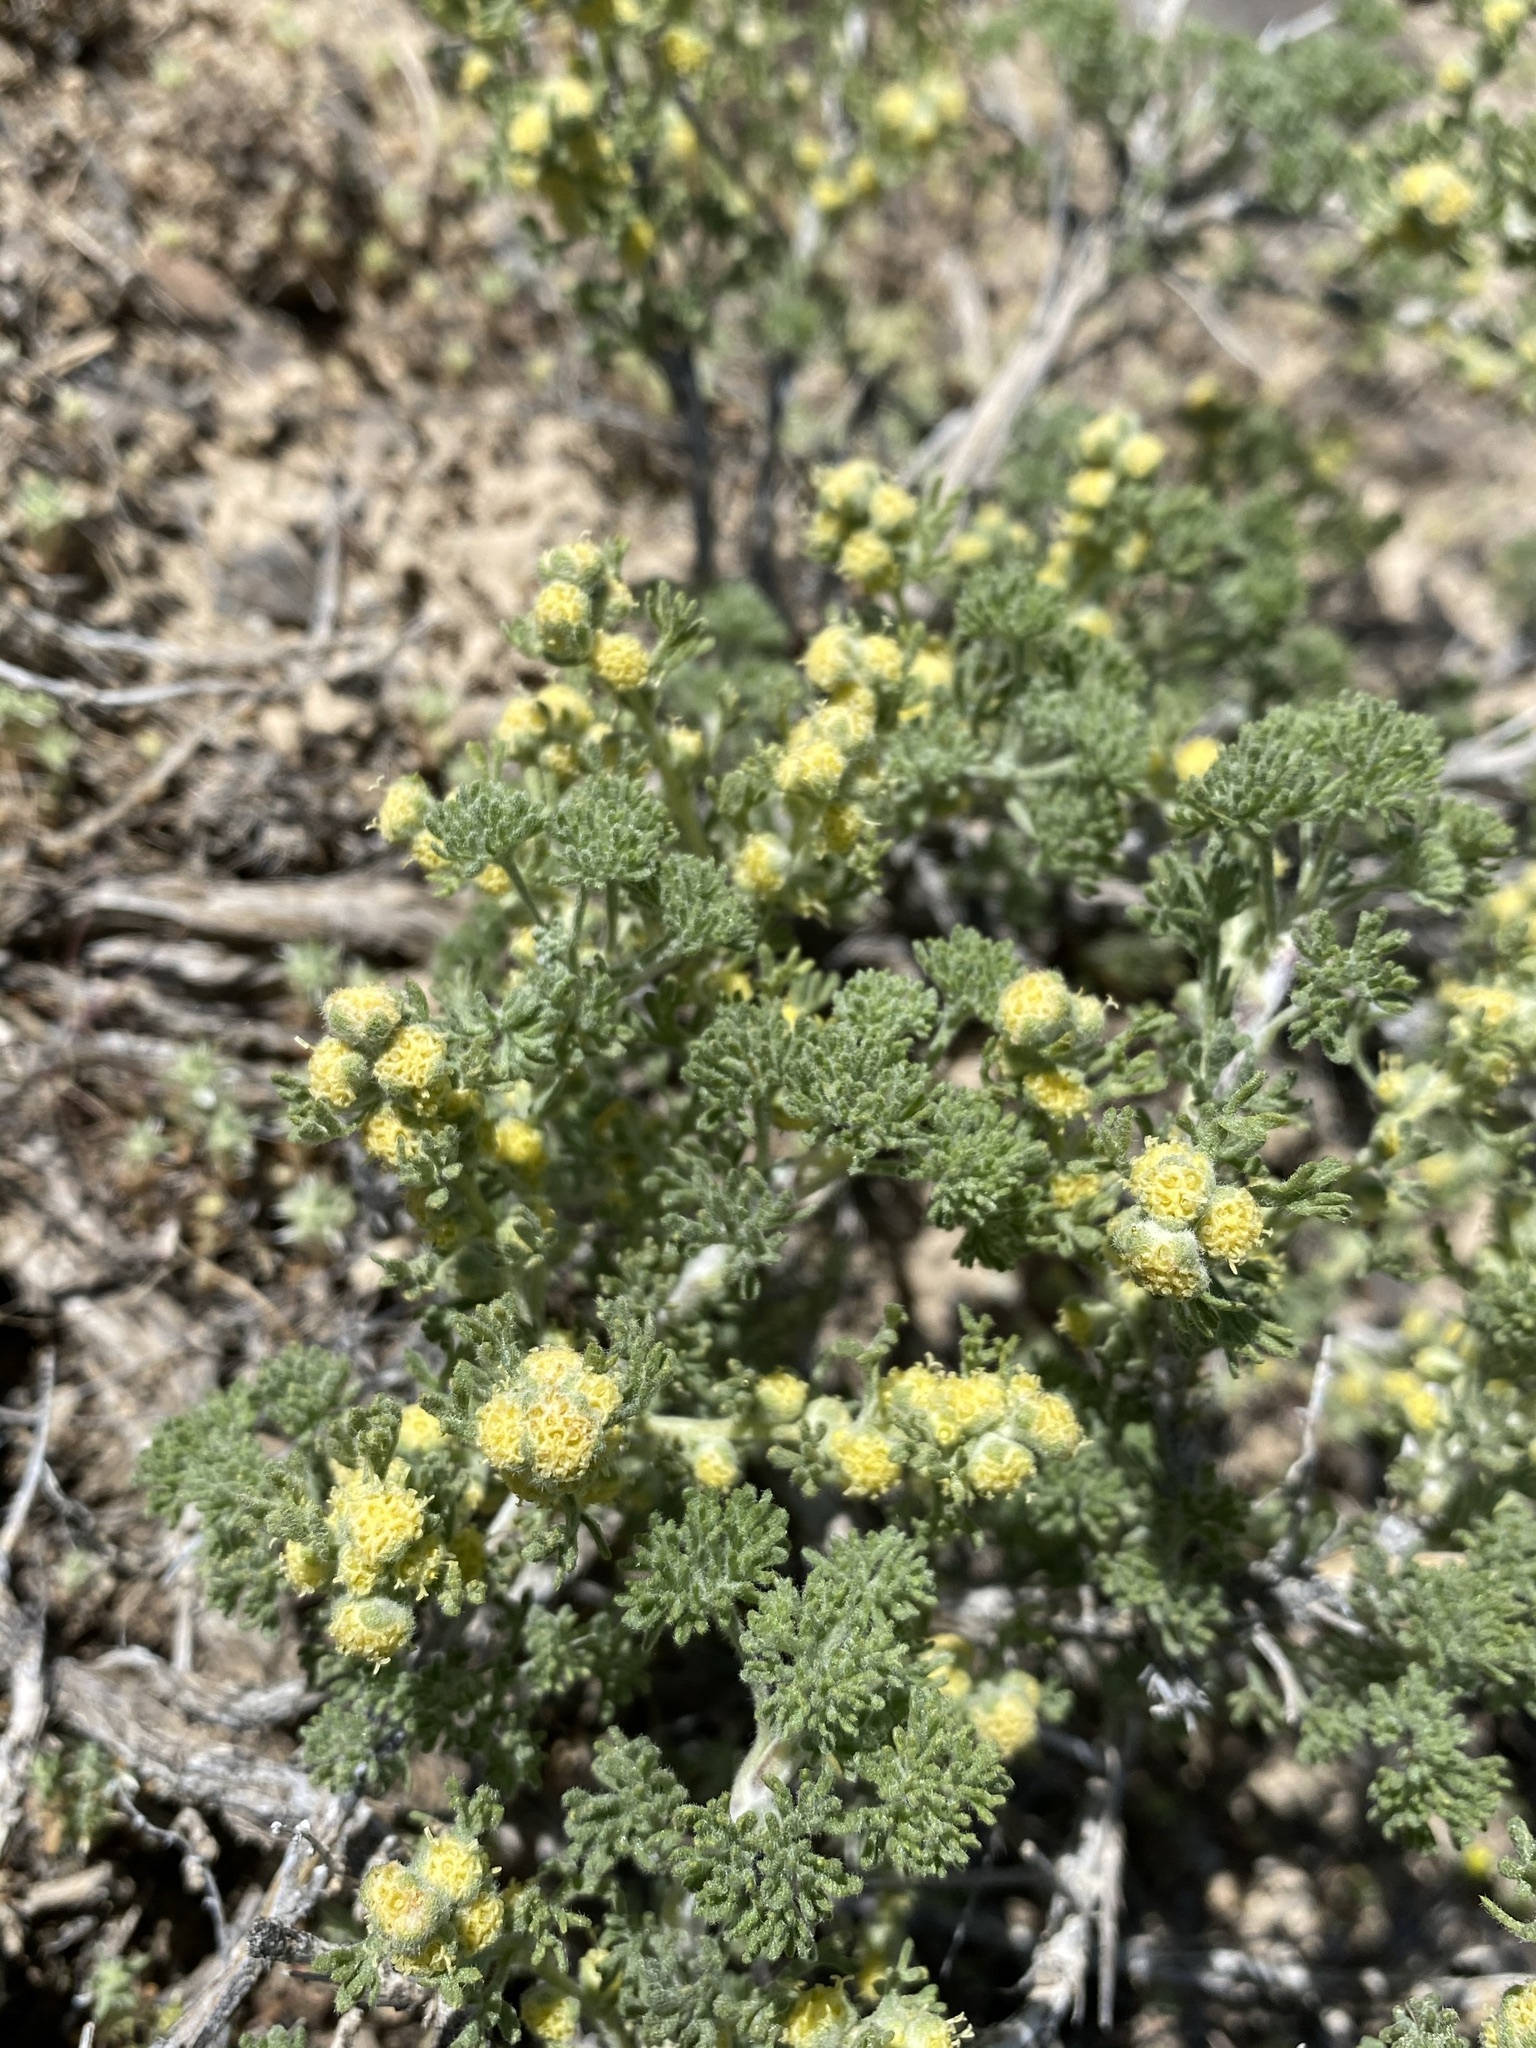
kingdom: Plantae
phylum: Tracheophyta
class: Magnoliopsida
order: Asterales
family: Asteraceae
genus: Artemisia
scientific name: Artemisia spinescens
